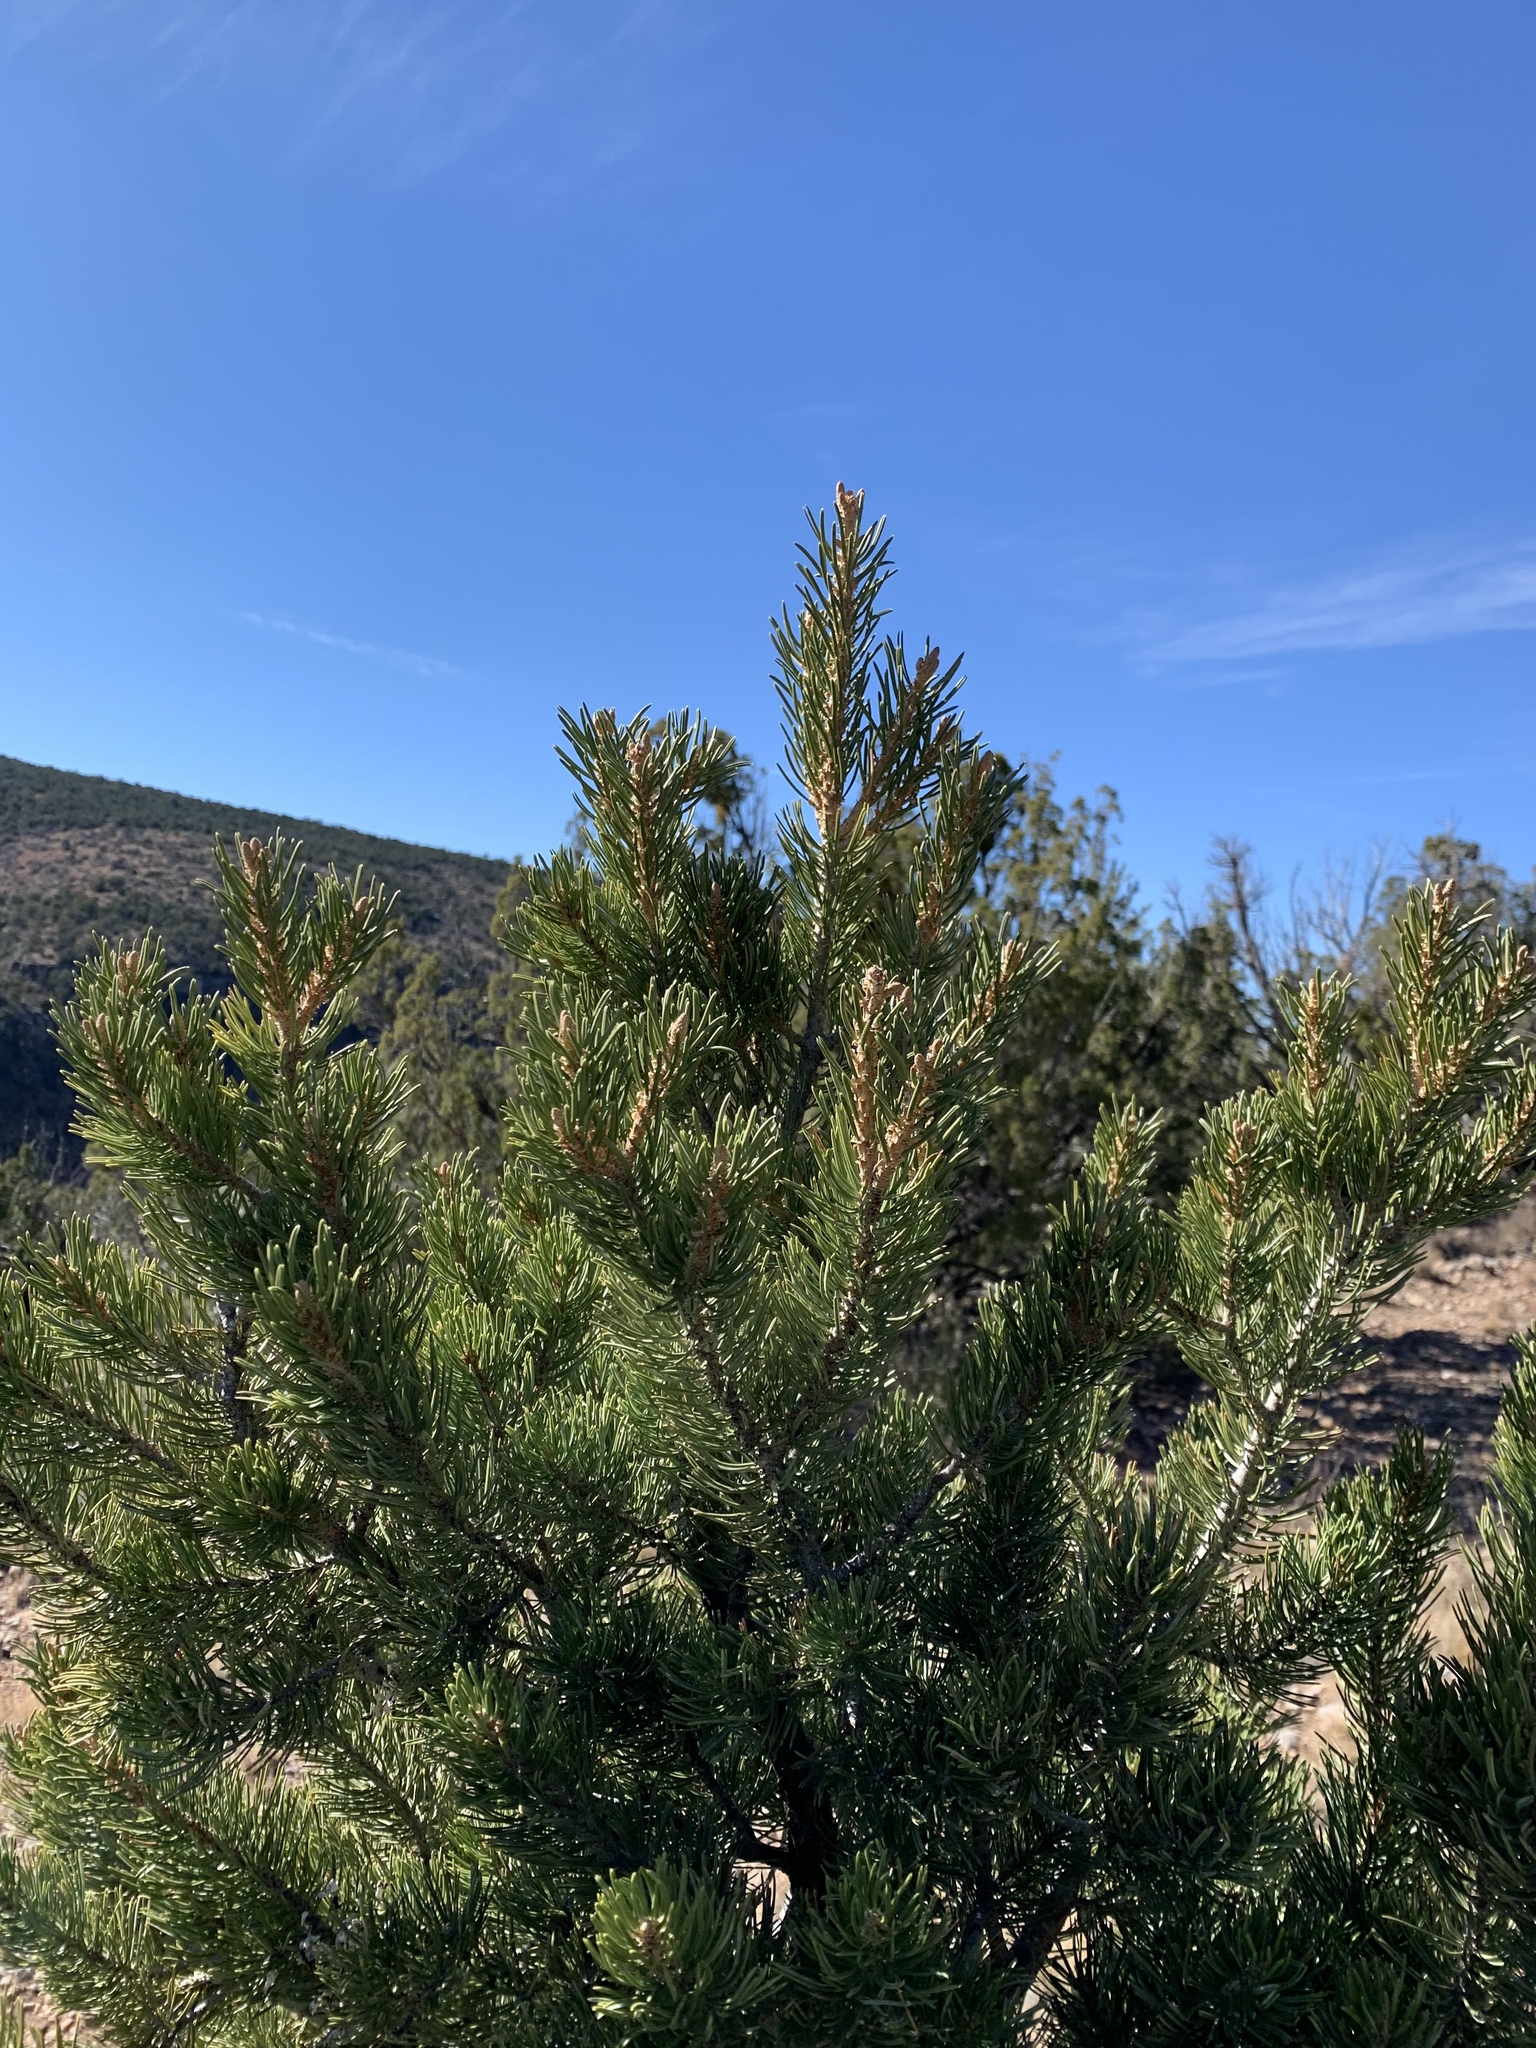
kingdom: Plantae
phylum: Tracheophyta
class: Pinopsida
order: Pinales
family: Pinaceae
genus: Pinus
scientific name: Pinus edulis
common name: Colorado pinyon
